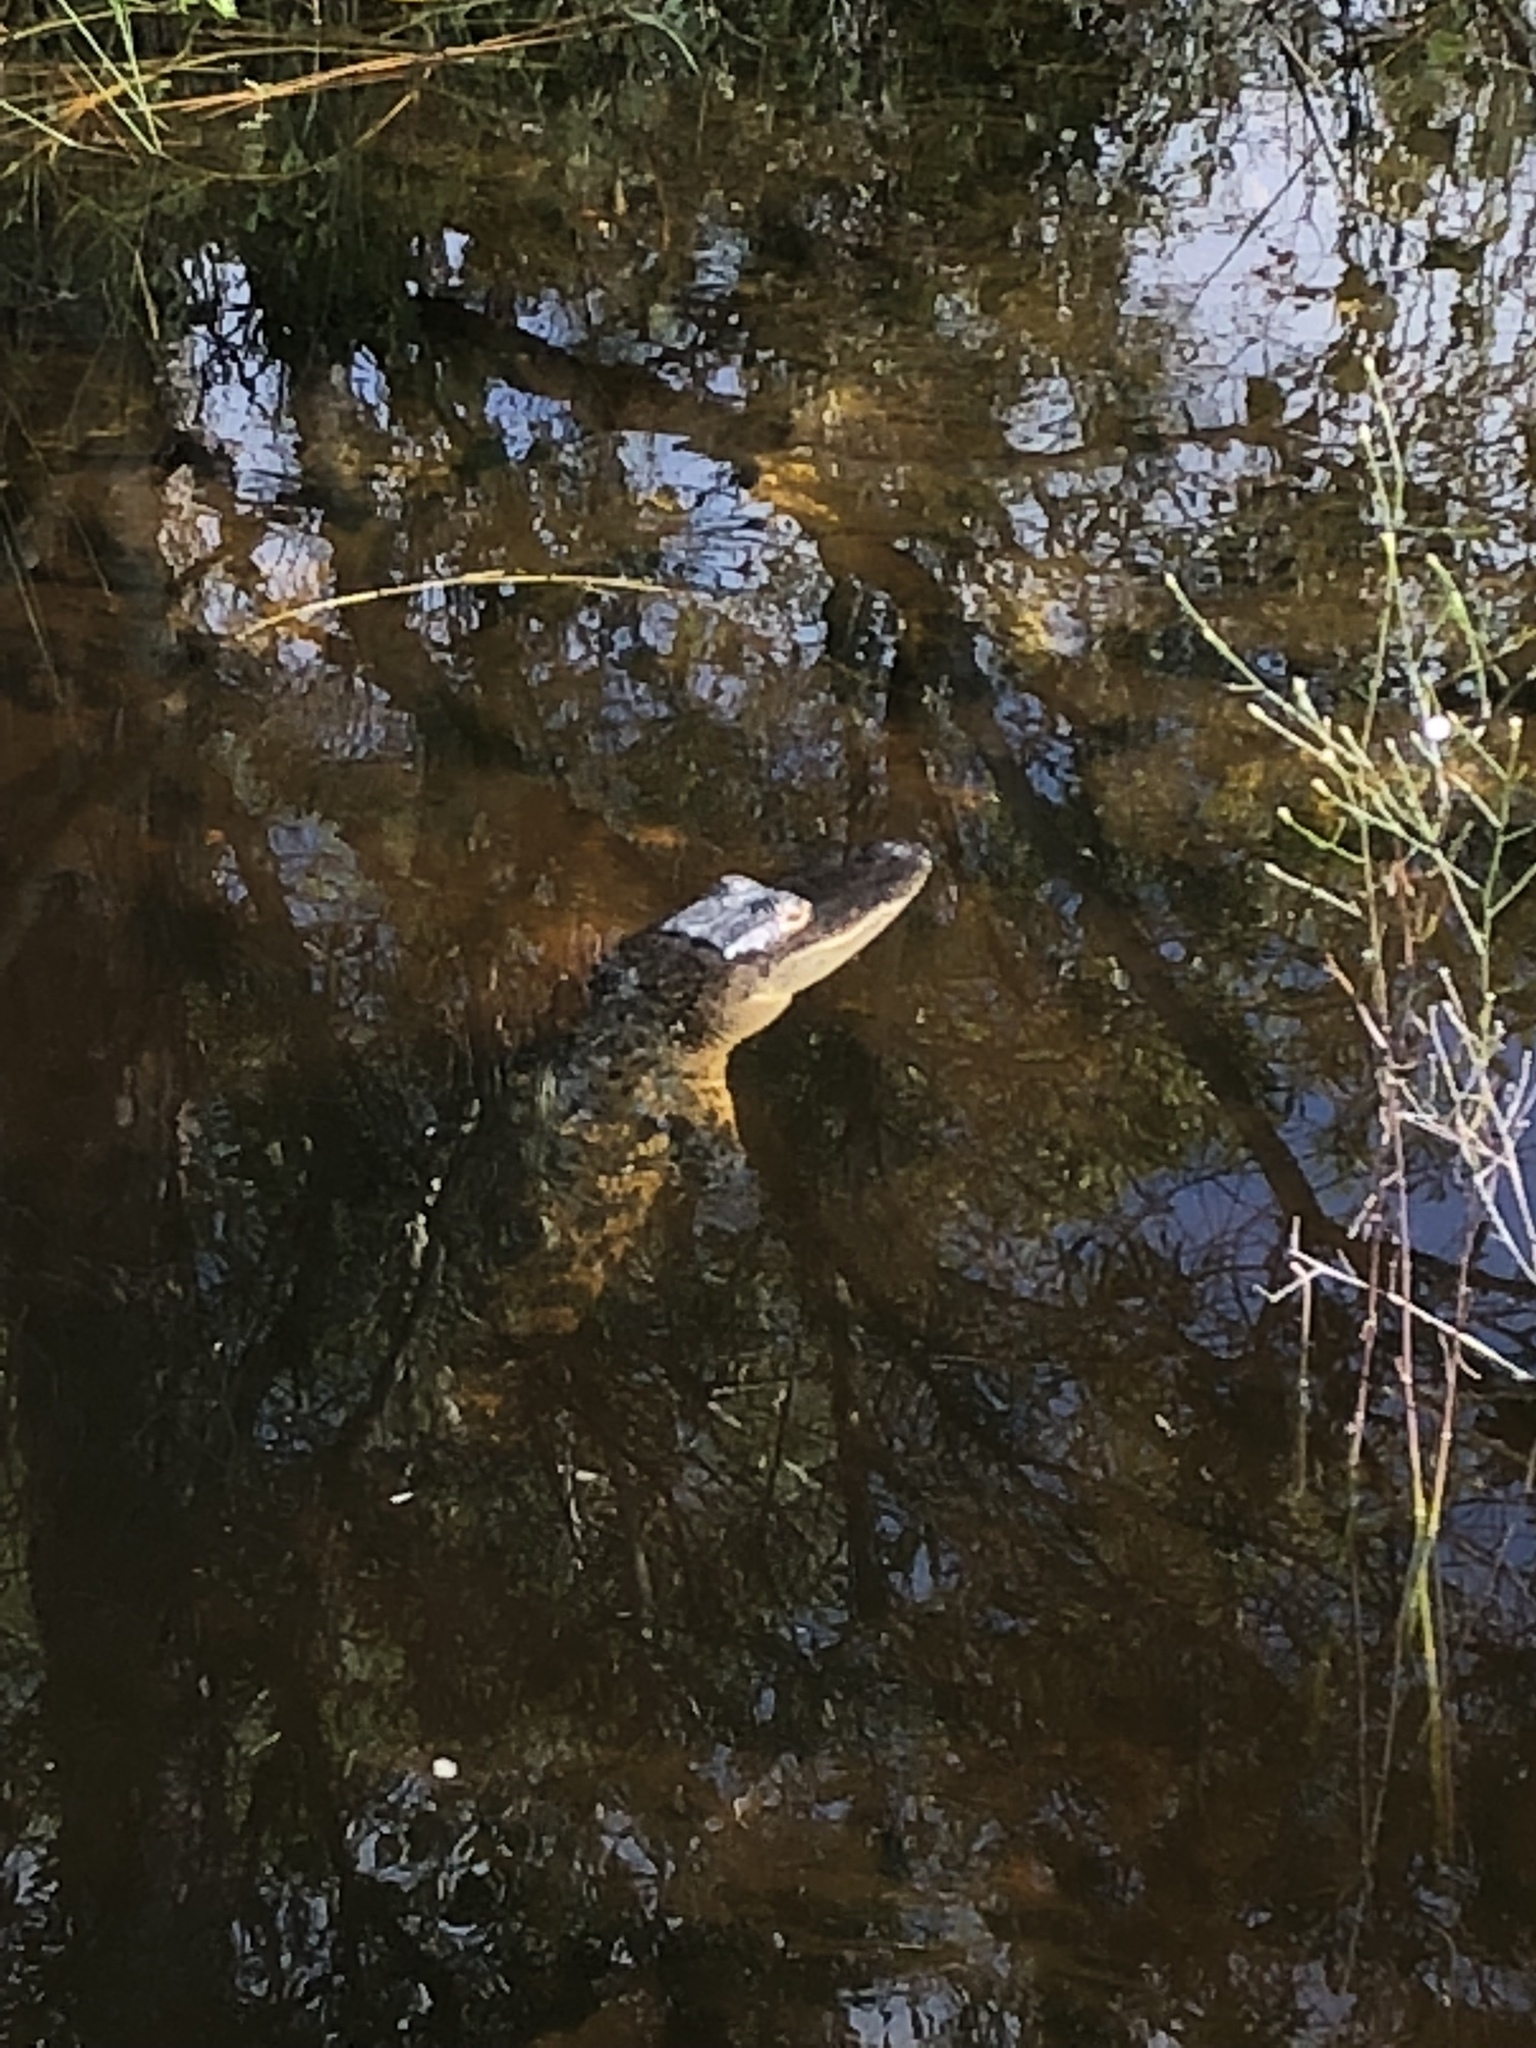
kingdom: Animalia
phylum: Chordata
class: Crocodylia
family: Alligatoridae
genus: Alligator
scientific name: Alligator mississippiensis
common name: American alligator
